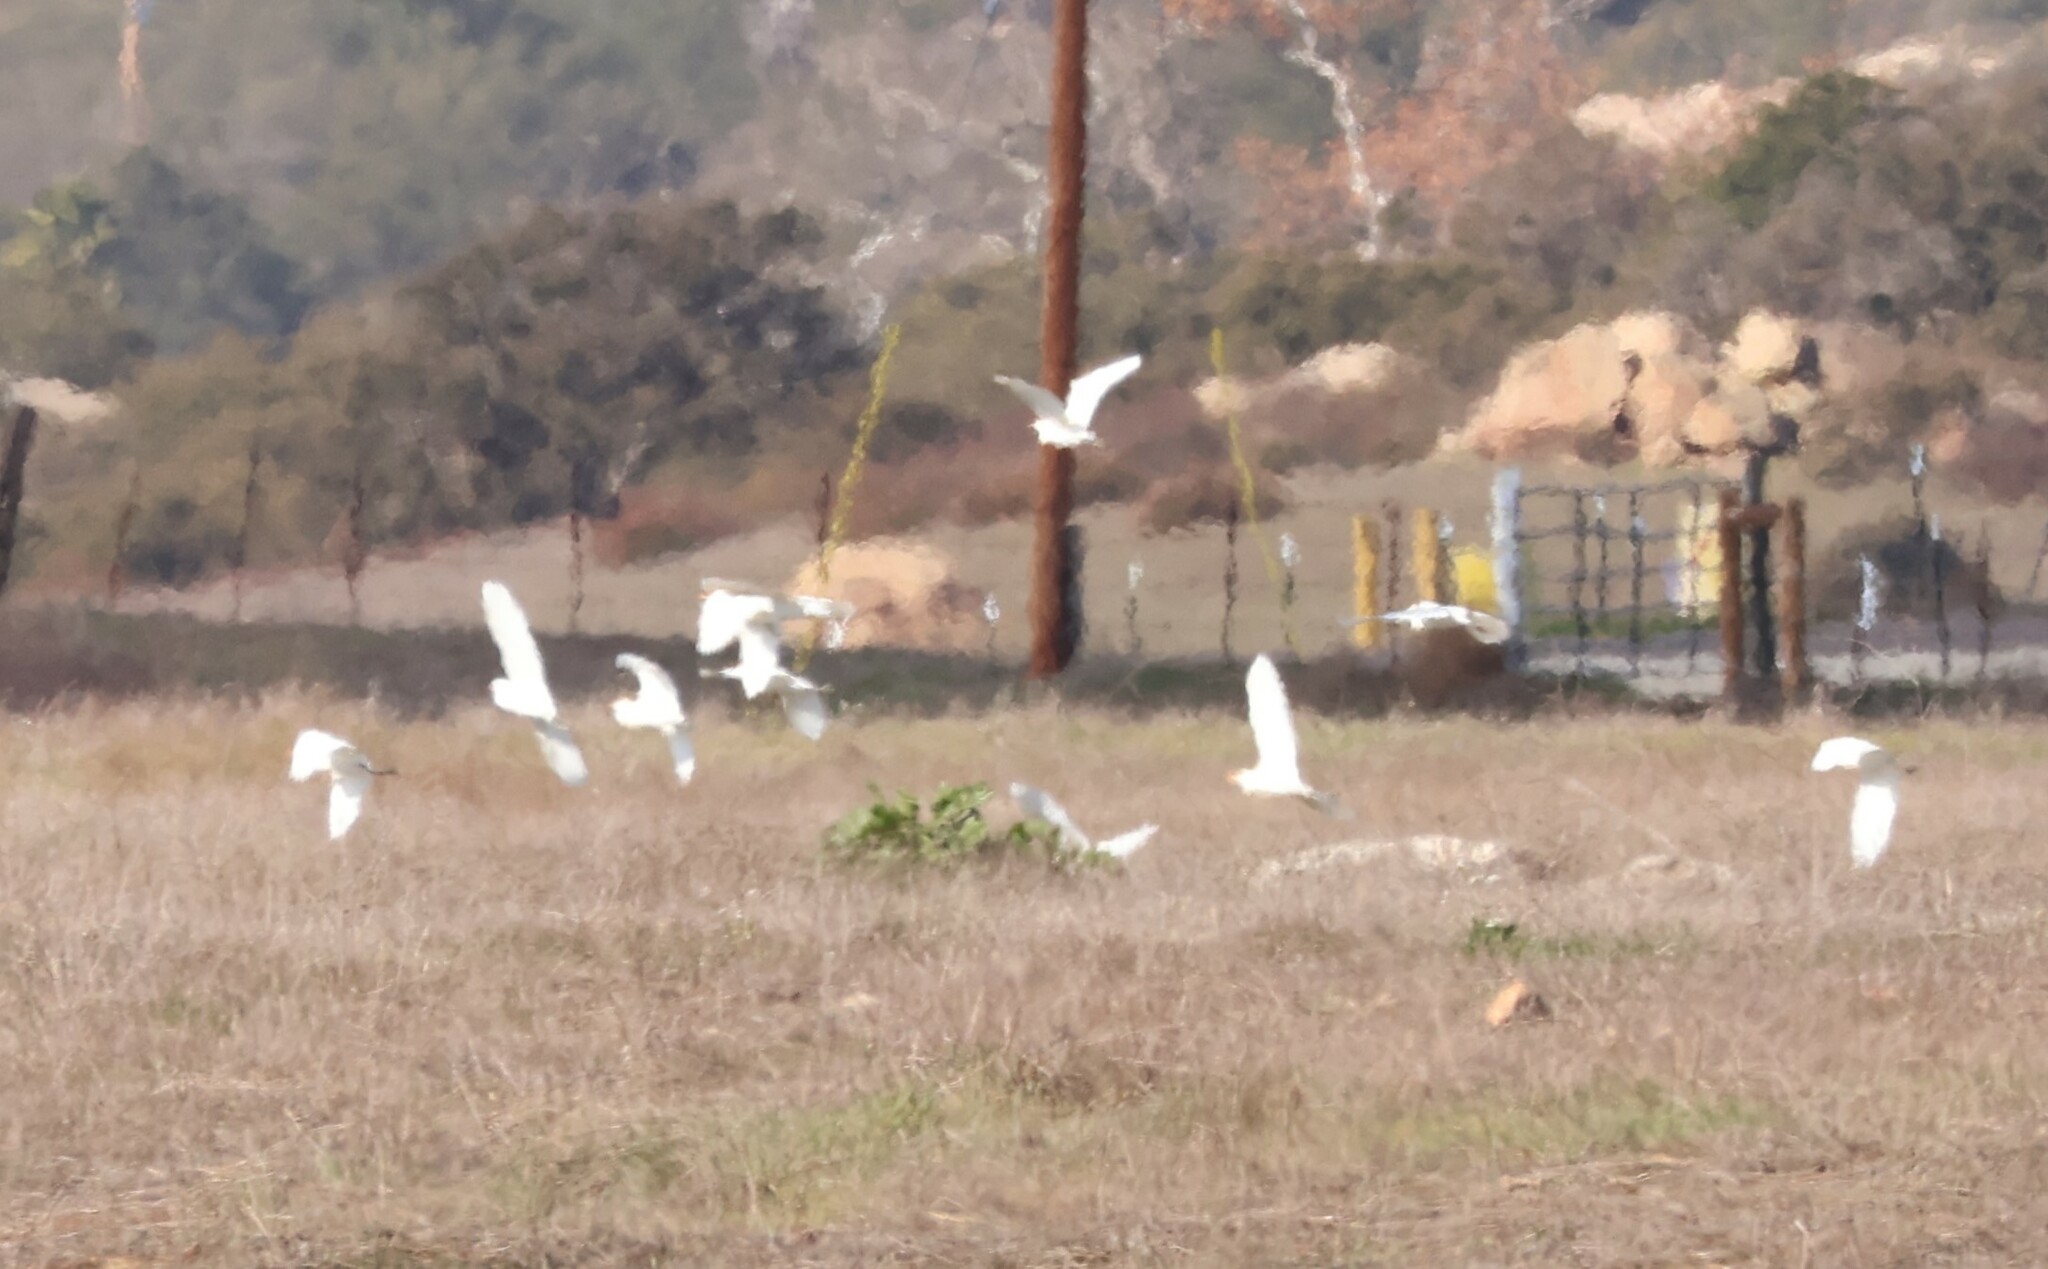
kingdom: Animalia
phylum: Chordata
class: Aves
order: Pelecaniformes
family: Ardeidae
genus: Bubulcus
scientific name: Bubulcus ibis
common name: Cattle egret
